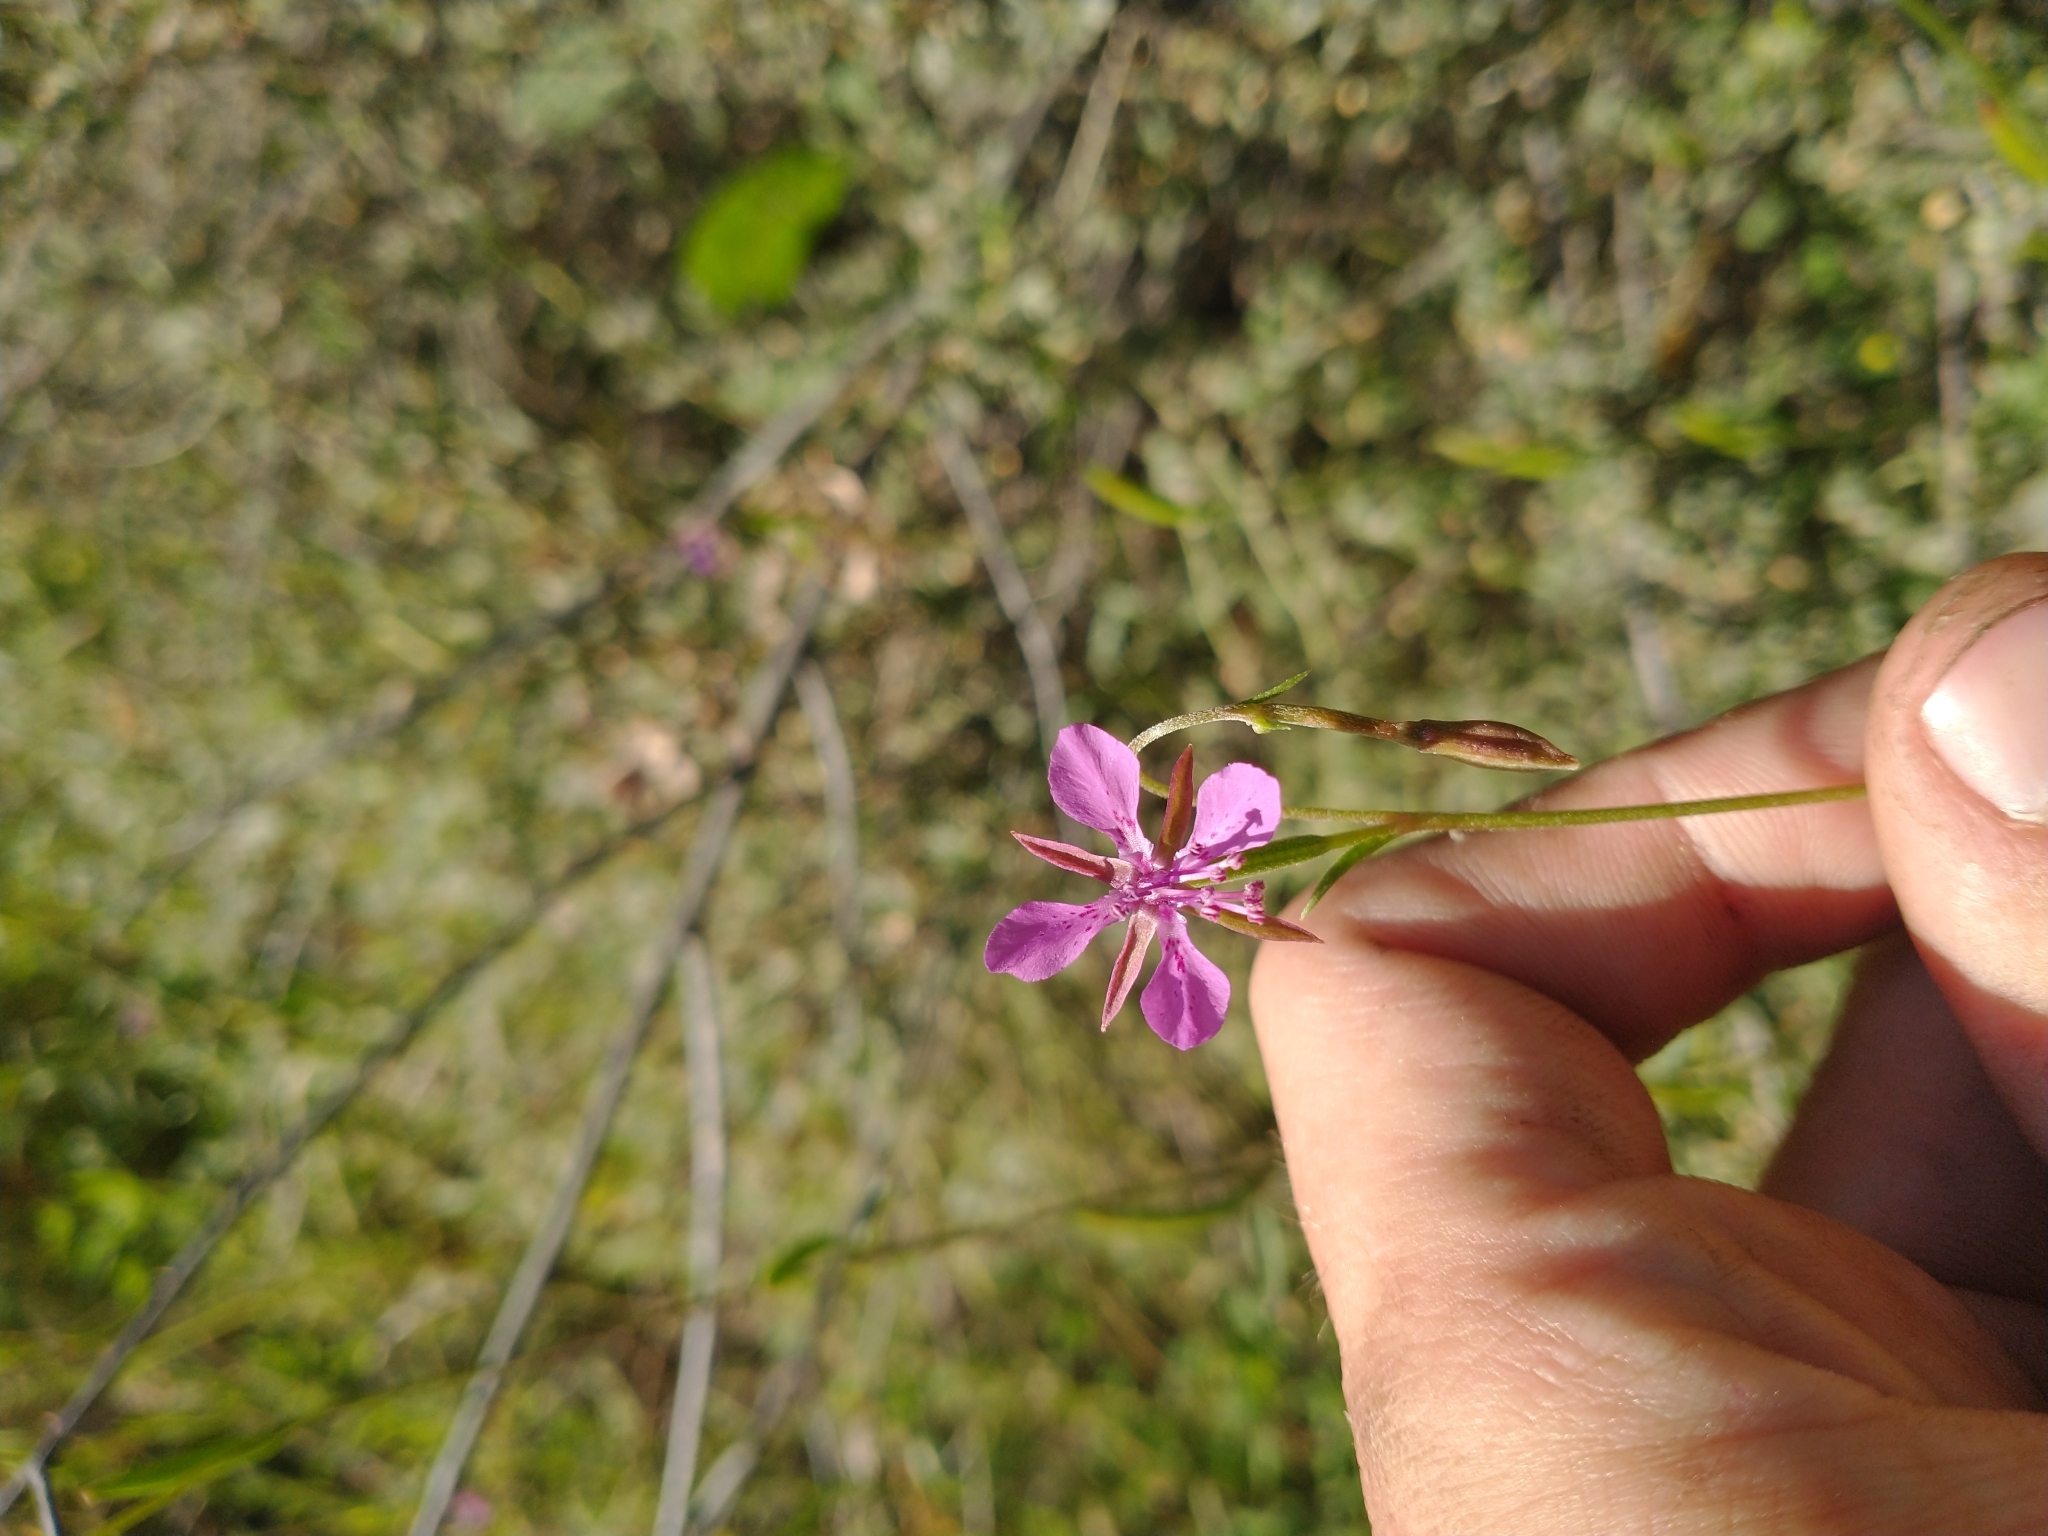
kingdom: Plantae
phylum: Tracheophyta
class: Magnoliopsida
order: Myrtales
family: Onagraceae
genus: Clarkia
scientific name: Clarkia rhomboidea
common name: Broadleaf clarkia
